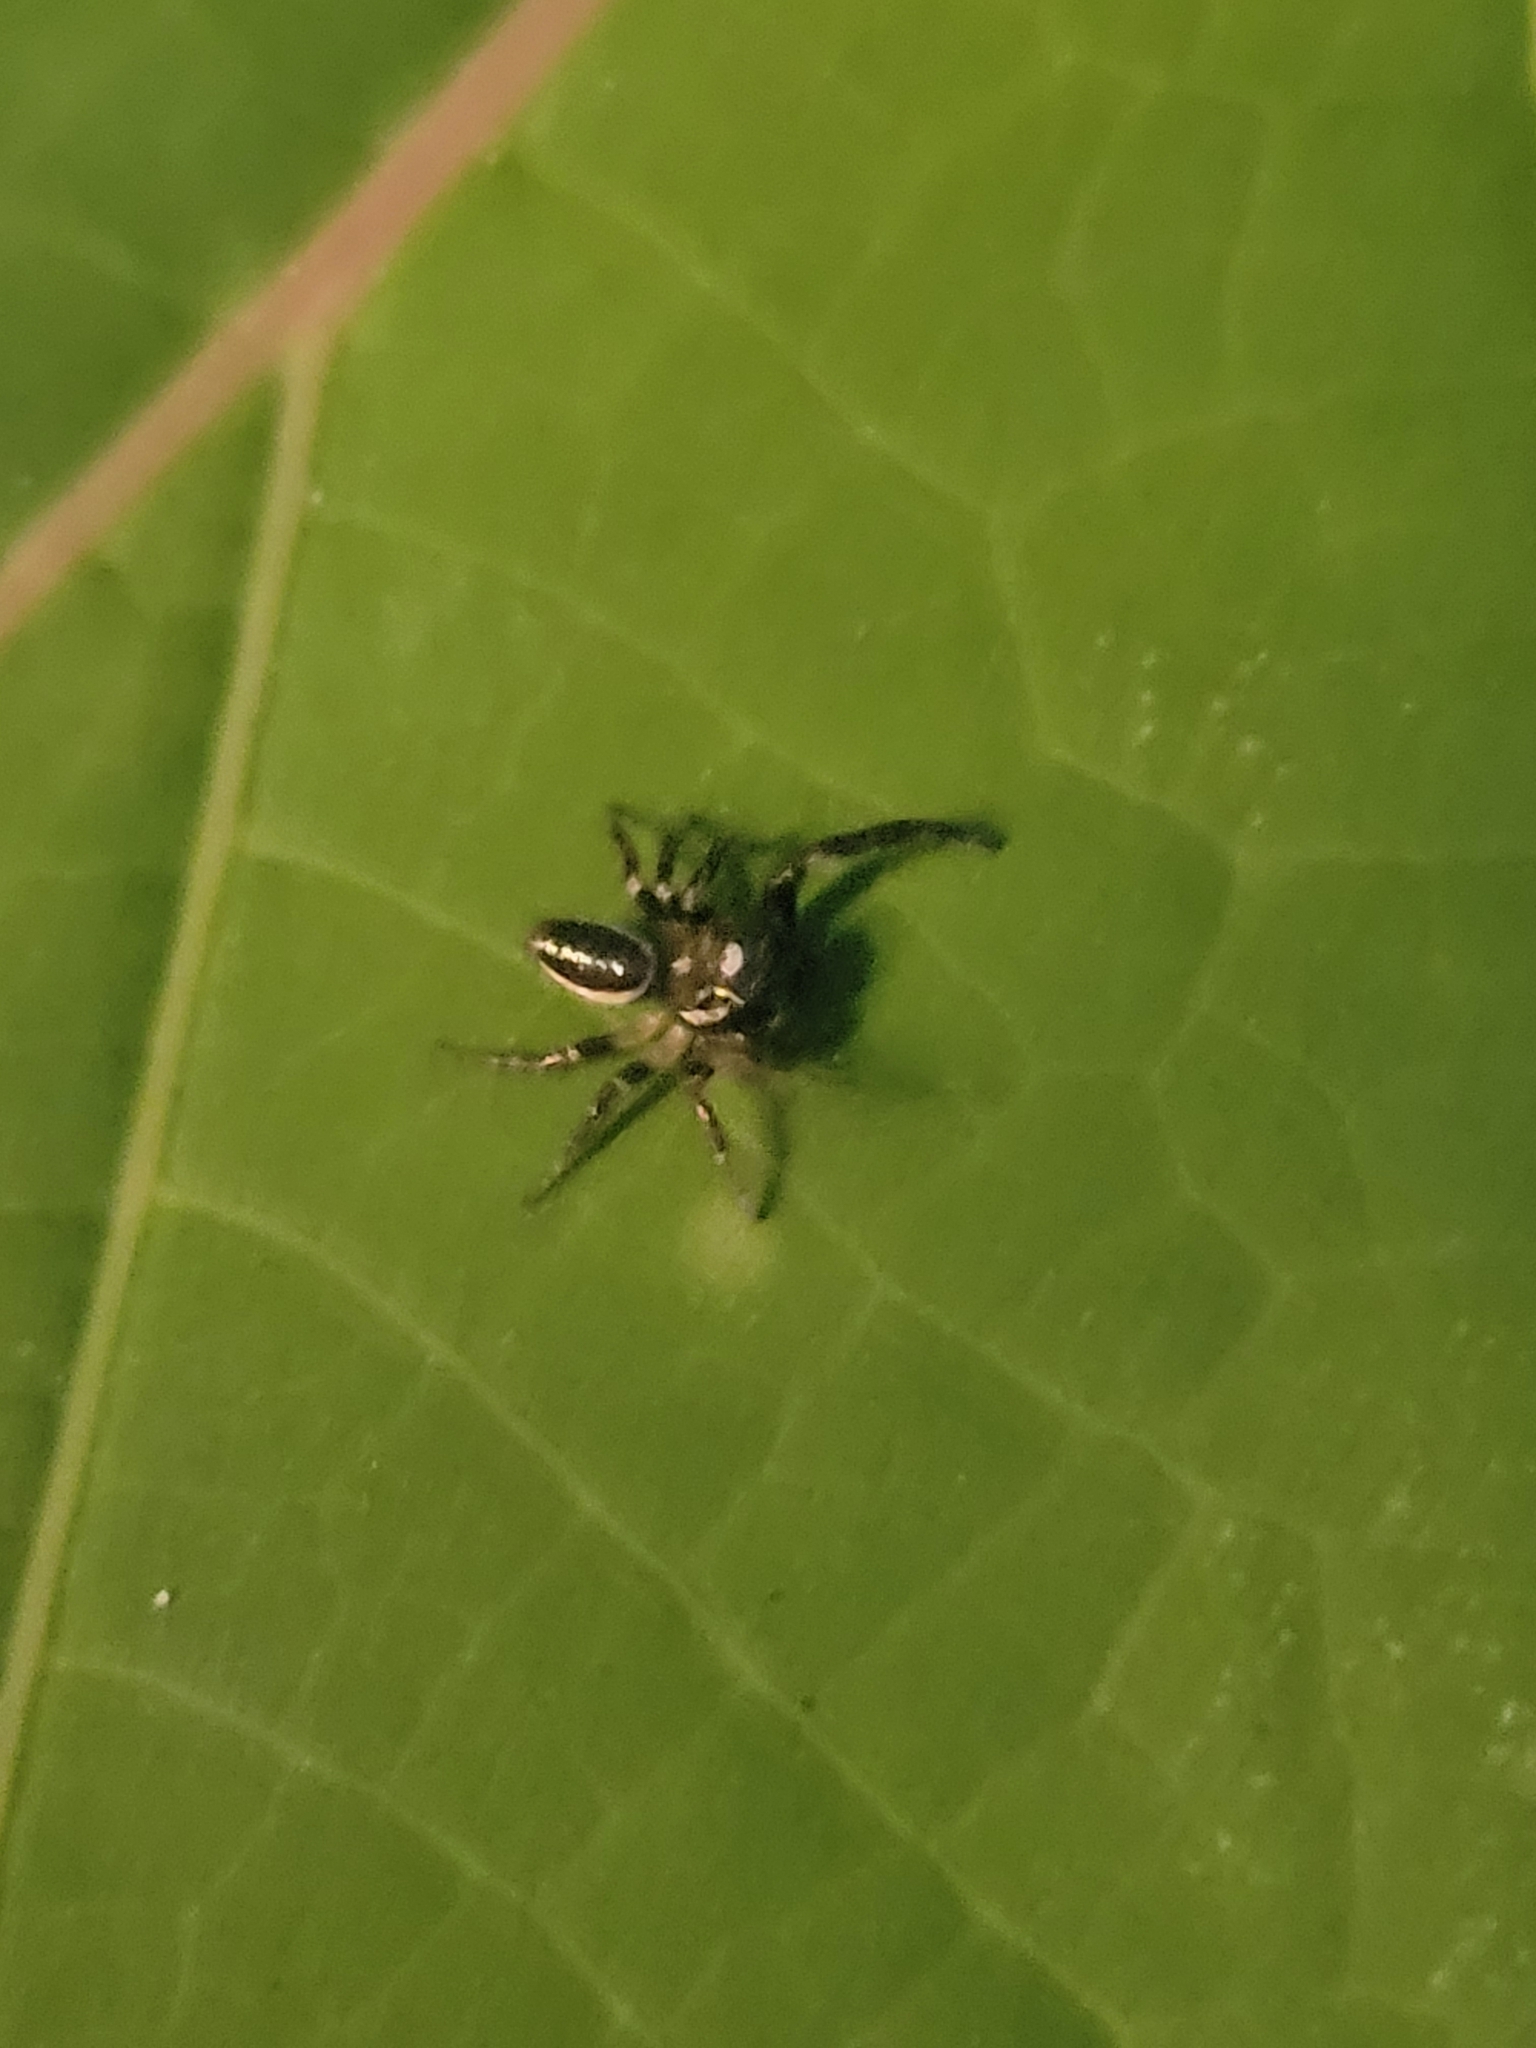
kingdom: Animalia
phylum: Arthropoda
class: Arachnida
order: Araneae
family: Salticidae
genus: Eris
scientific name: Eris militaris
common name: Bronze jumper
